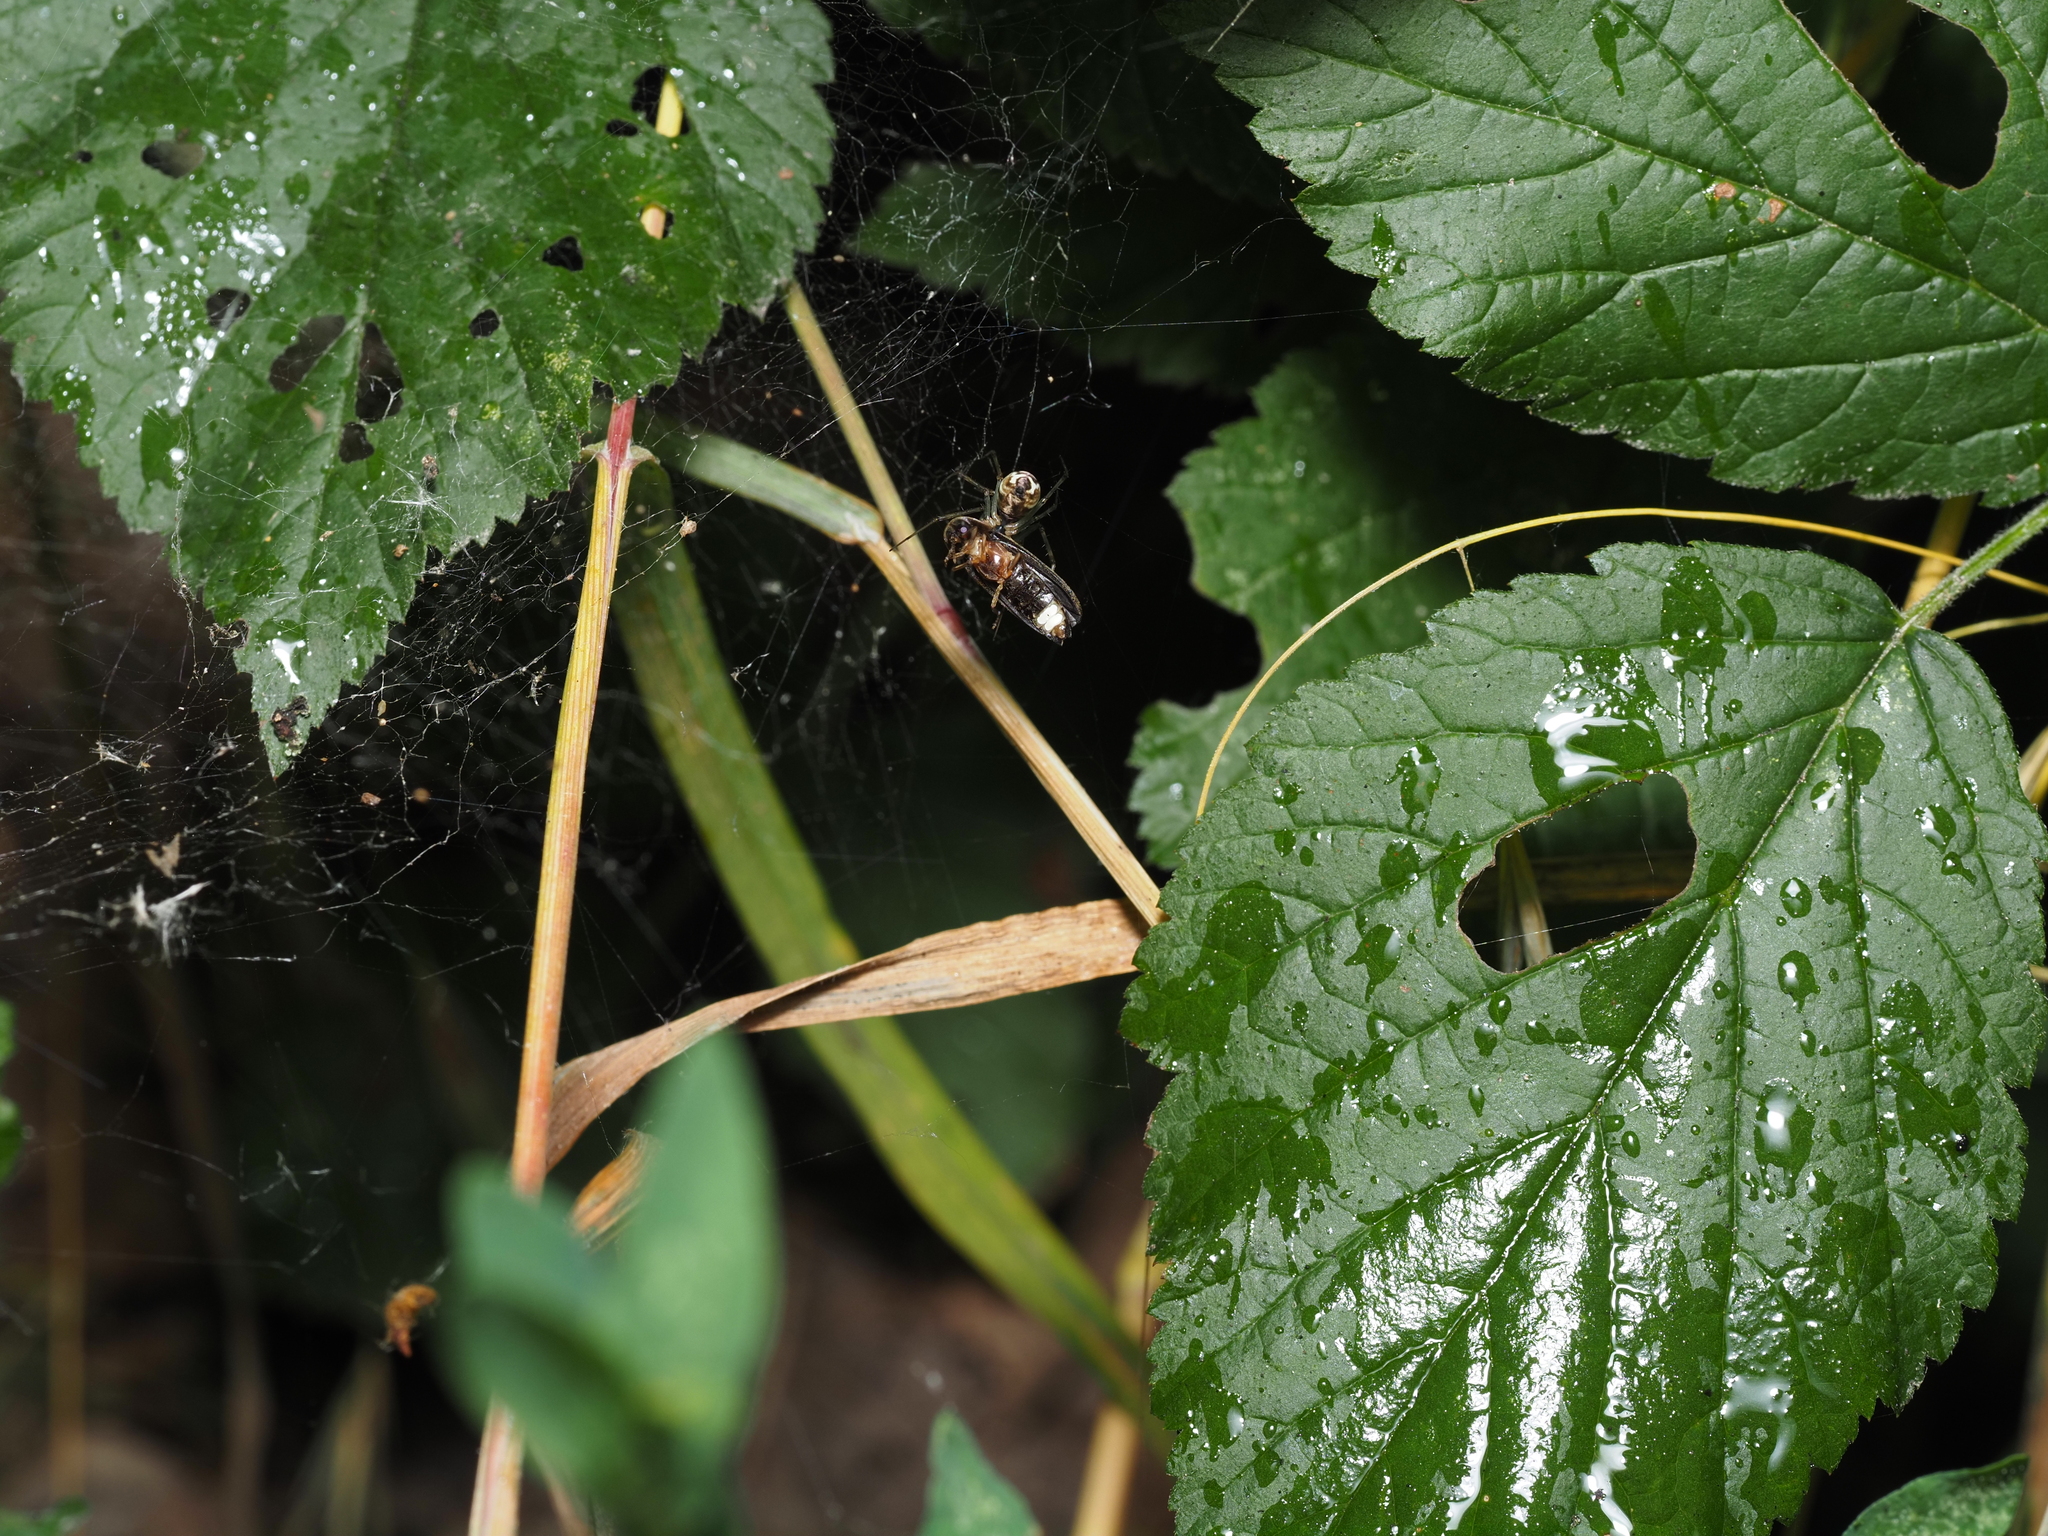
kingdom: Animalia
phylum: Arthropoda
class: Insecta
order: Coleoptera
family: Lampyridae
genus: Lamprohiza
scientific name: Lamprohiza splendidula
